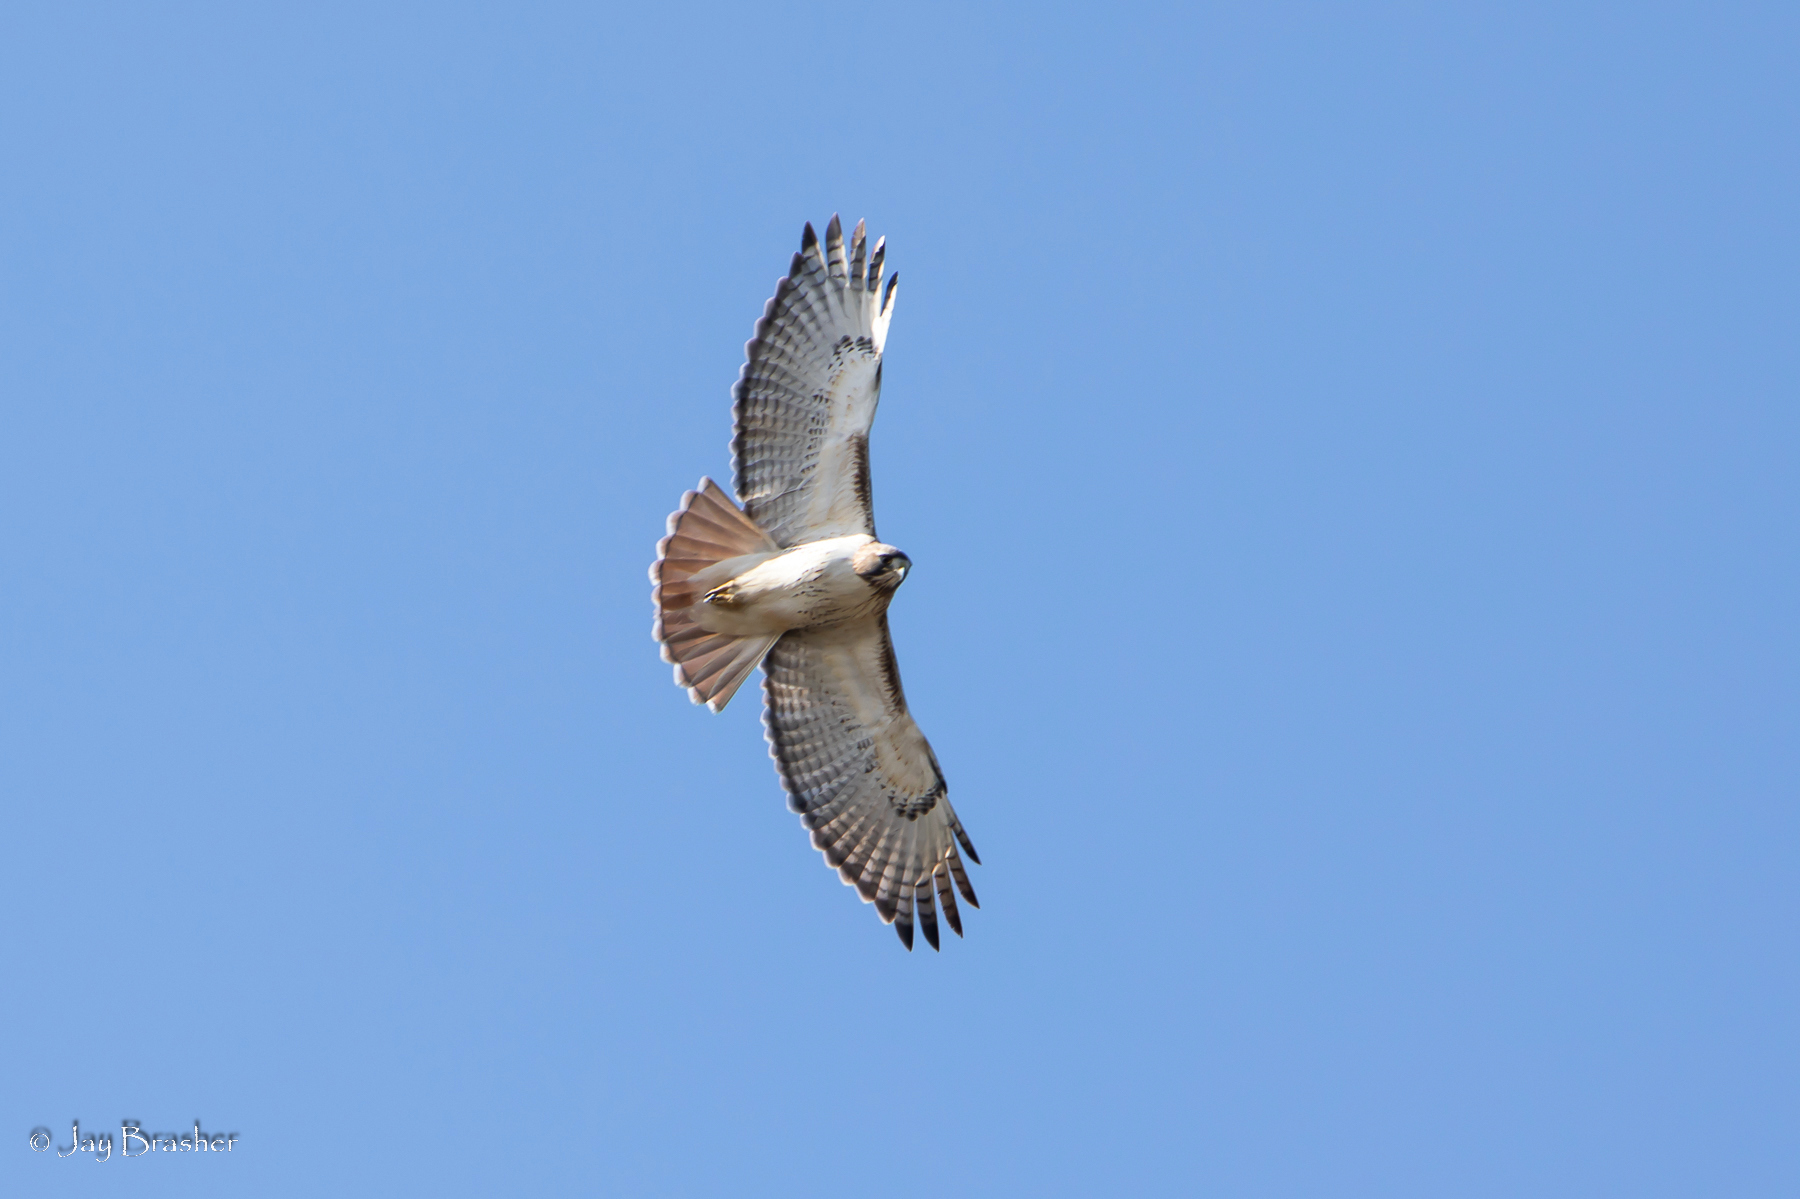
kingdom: Animalia
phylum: Chordata
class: Aves
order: Accipitriformes
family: Accipitridae
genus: Buteo
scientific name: Buteo jamaicensis
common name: Red-tailed hawk
